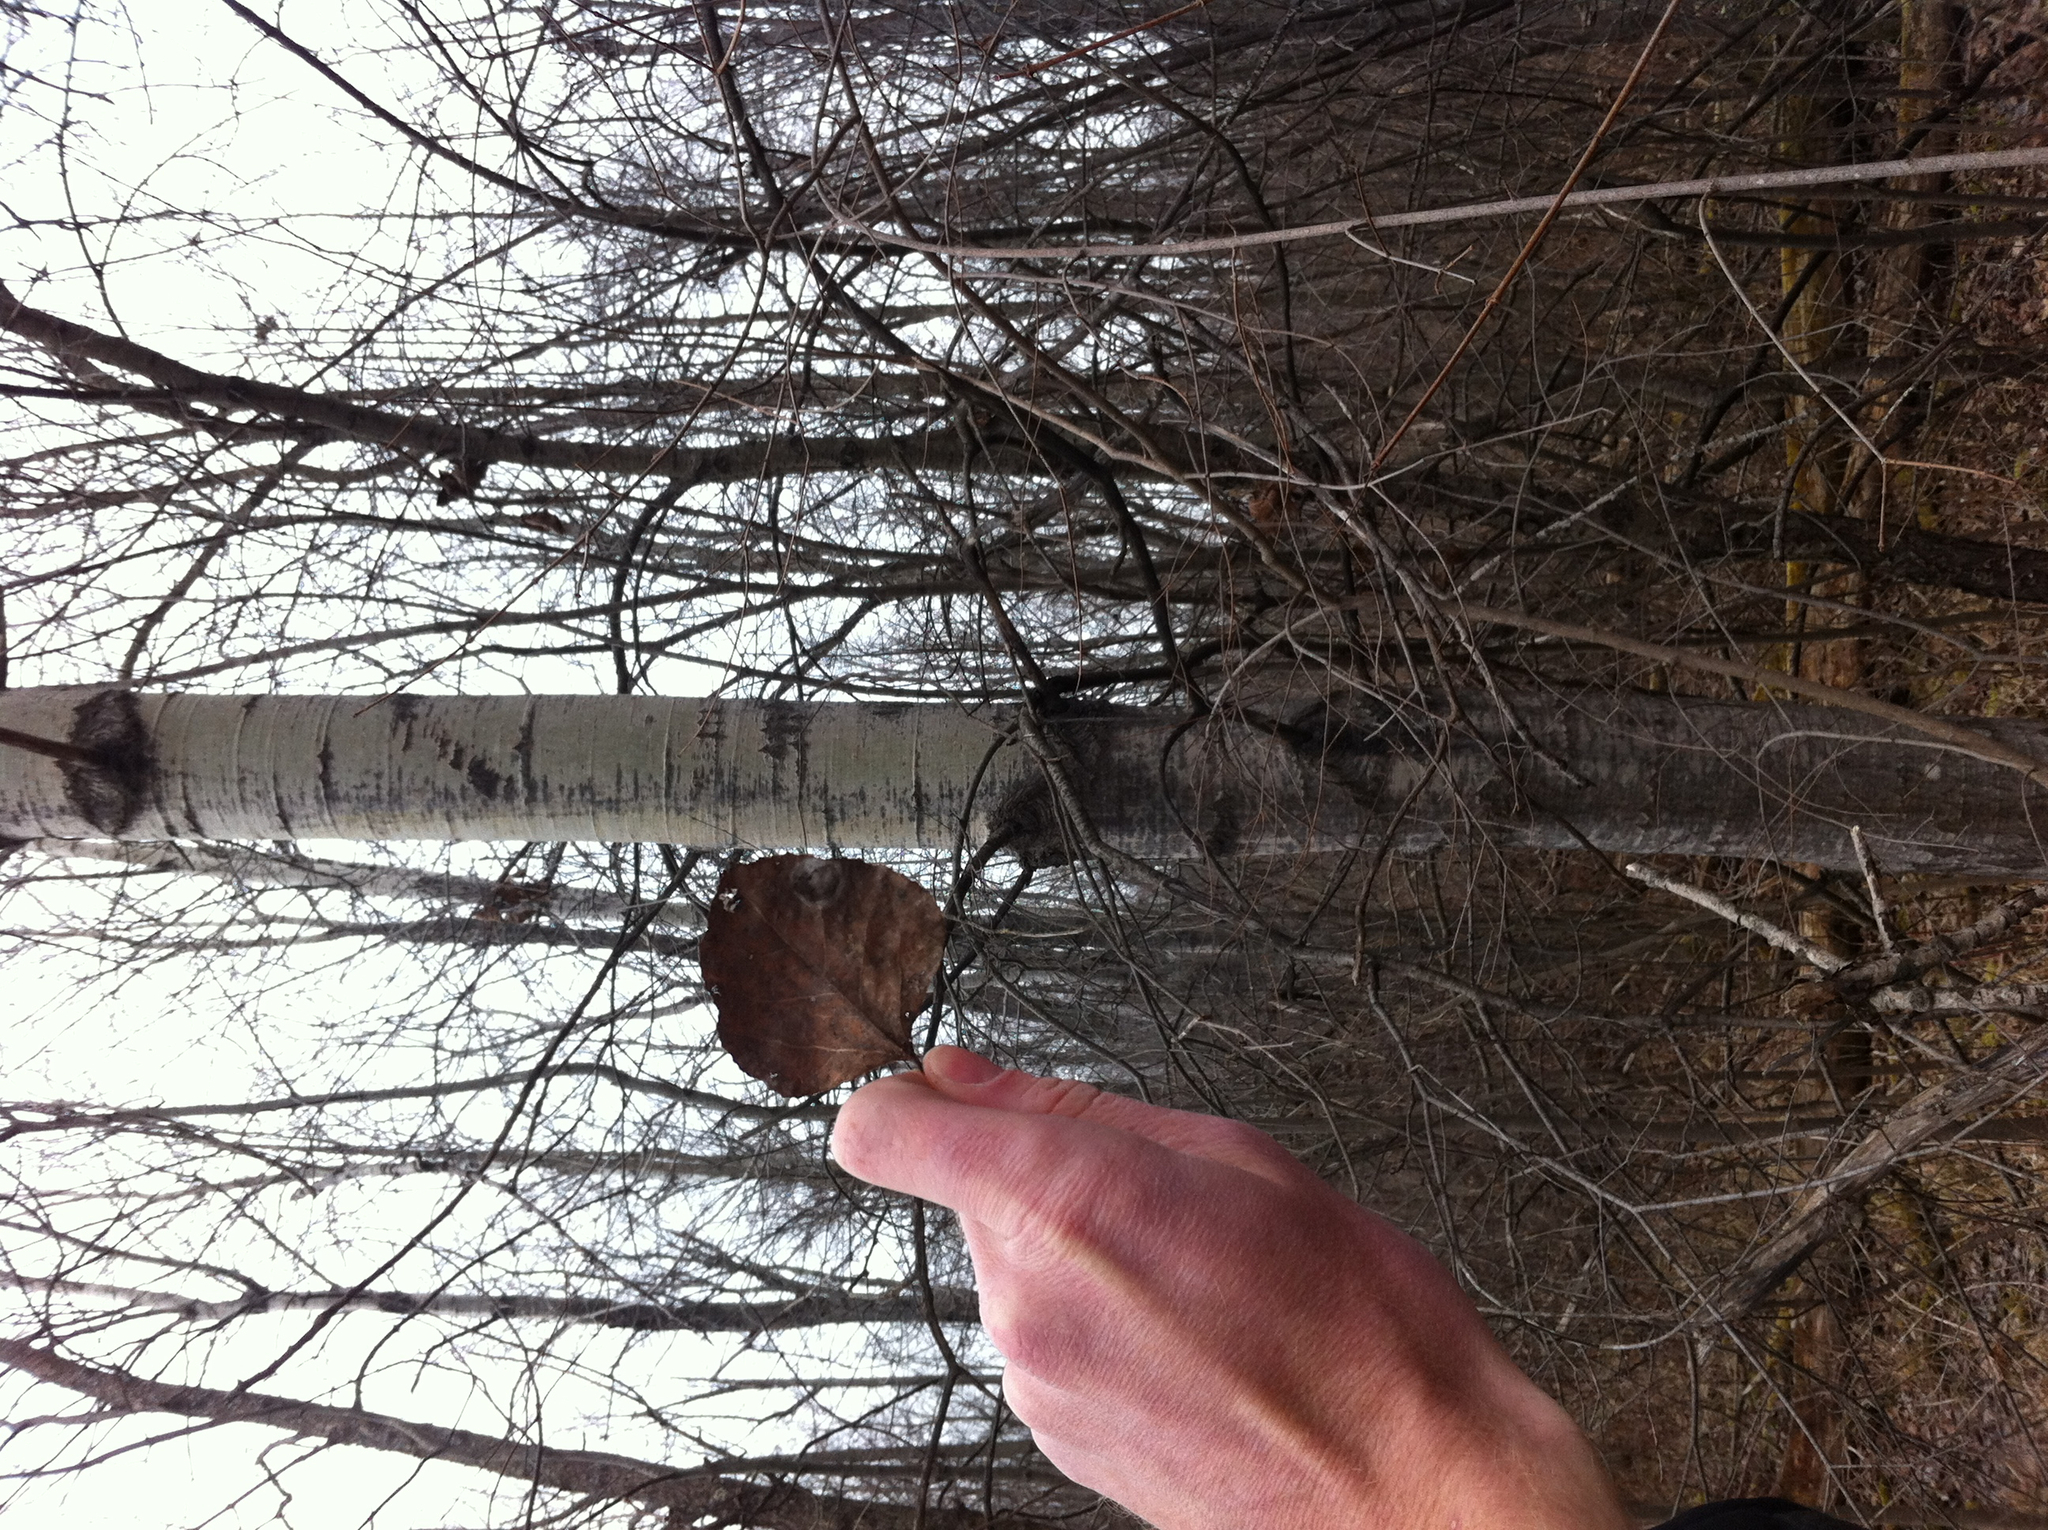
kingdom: Plantae
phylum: Tracheophyta
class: Magnoliopsida
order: Malpighiales
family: Salicaceae
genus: Populus
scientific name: Populus tremuloides
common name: Quaking aspen
